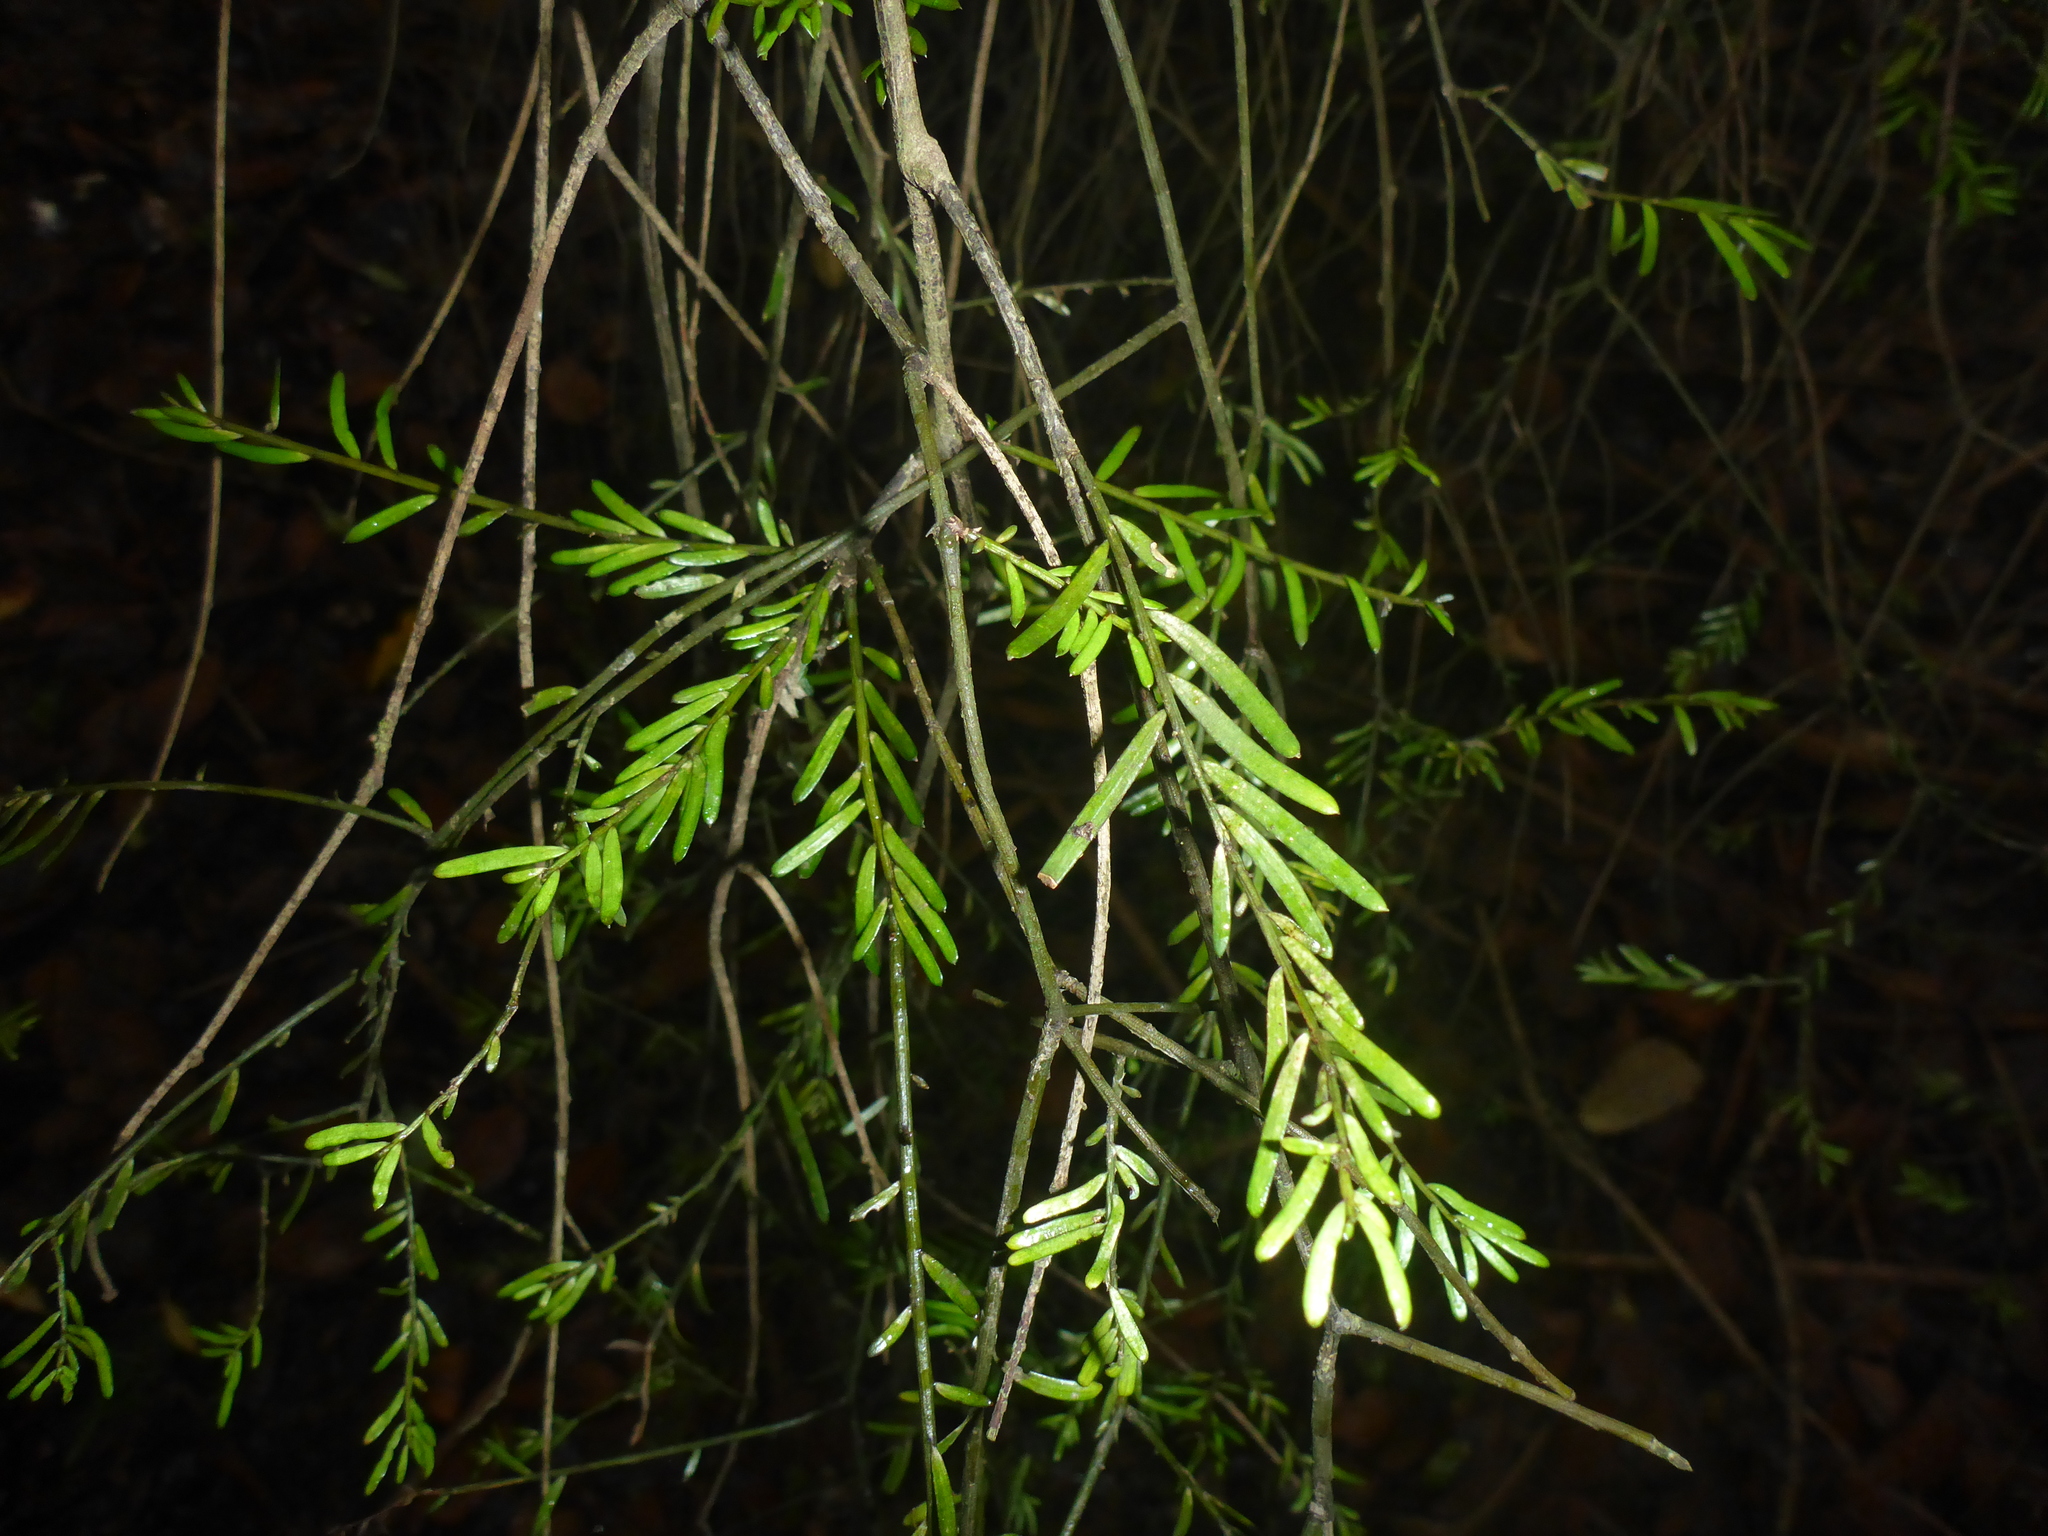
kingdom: Plantae
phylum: Tracheophyta
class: Pinopsida
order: Pinales
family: Podocarpaceae
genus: Prumnopitys
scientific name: Prumnopitys taxifolia
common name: Matai
